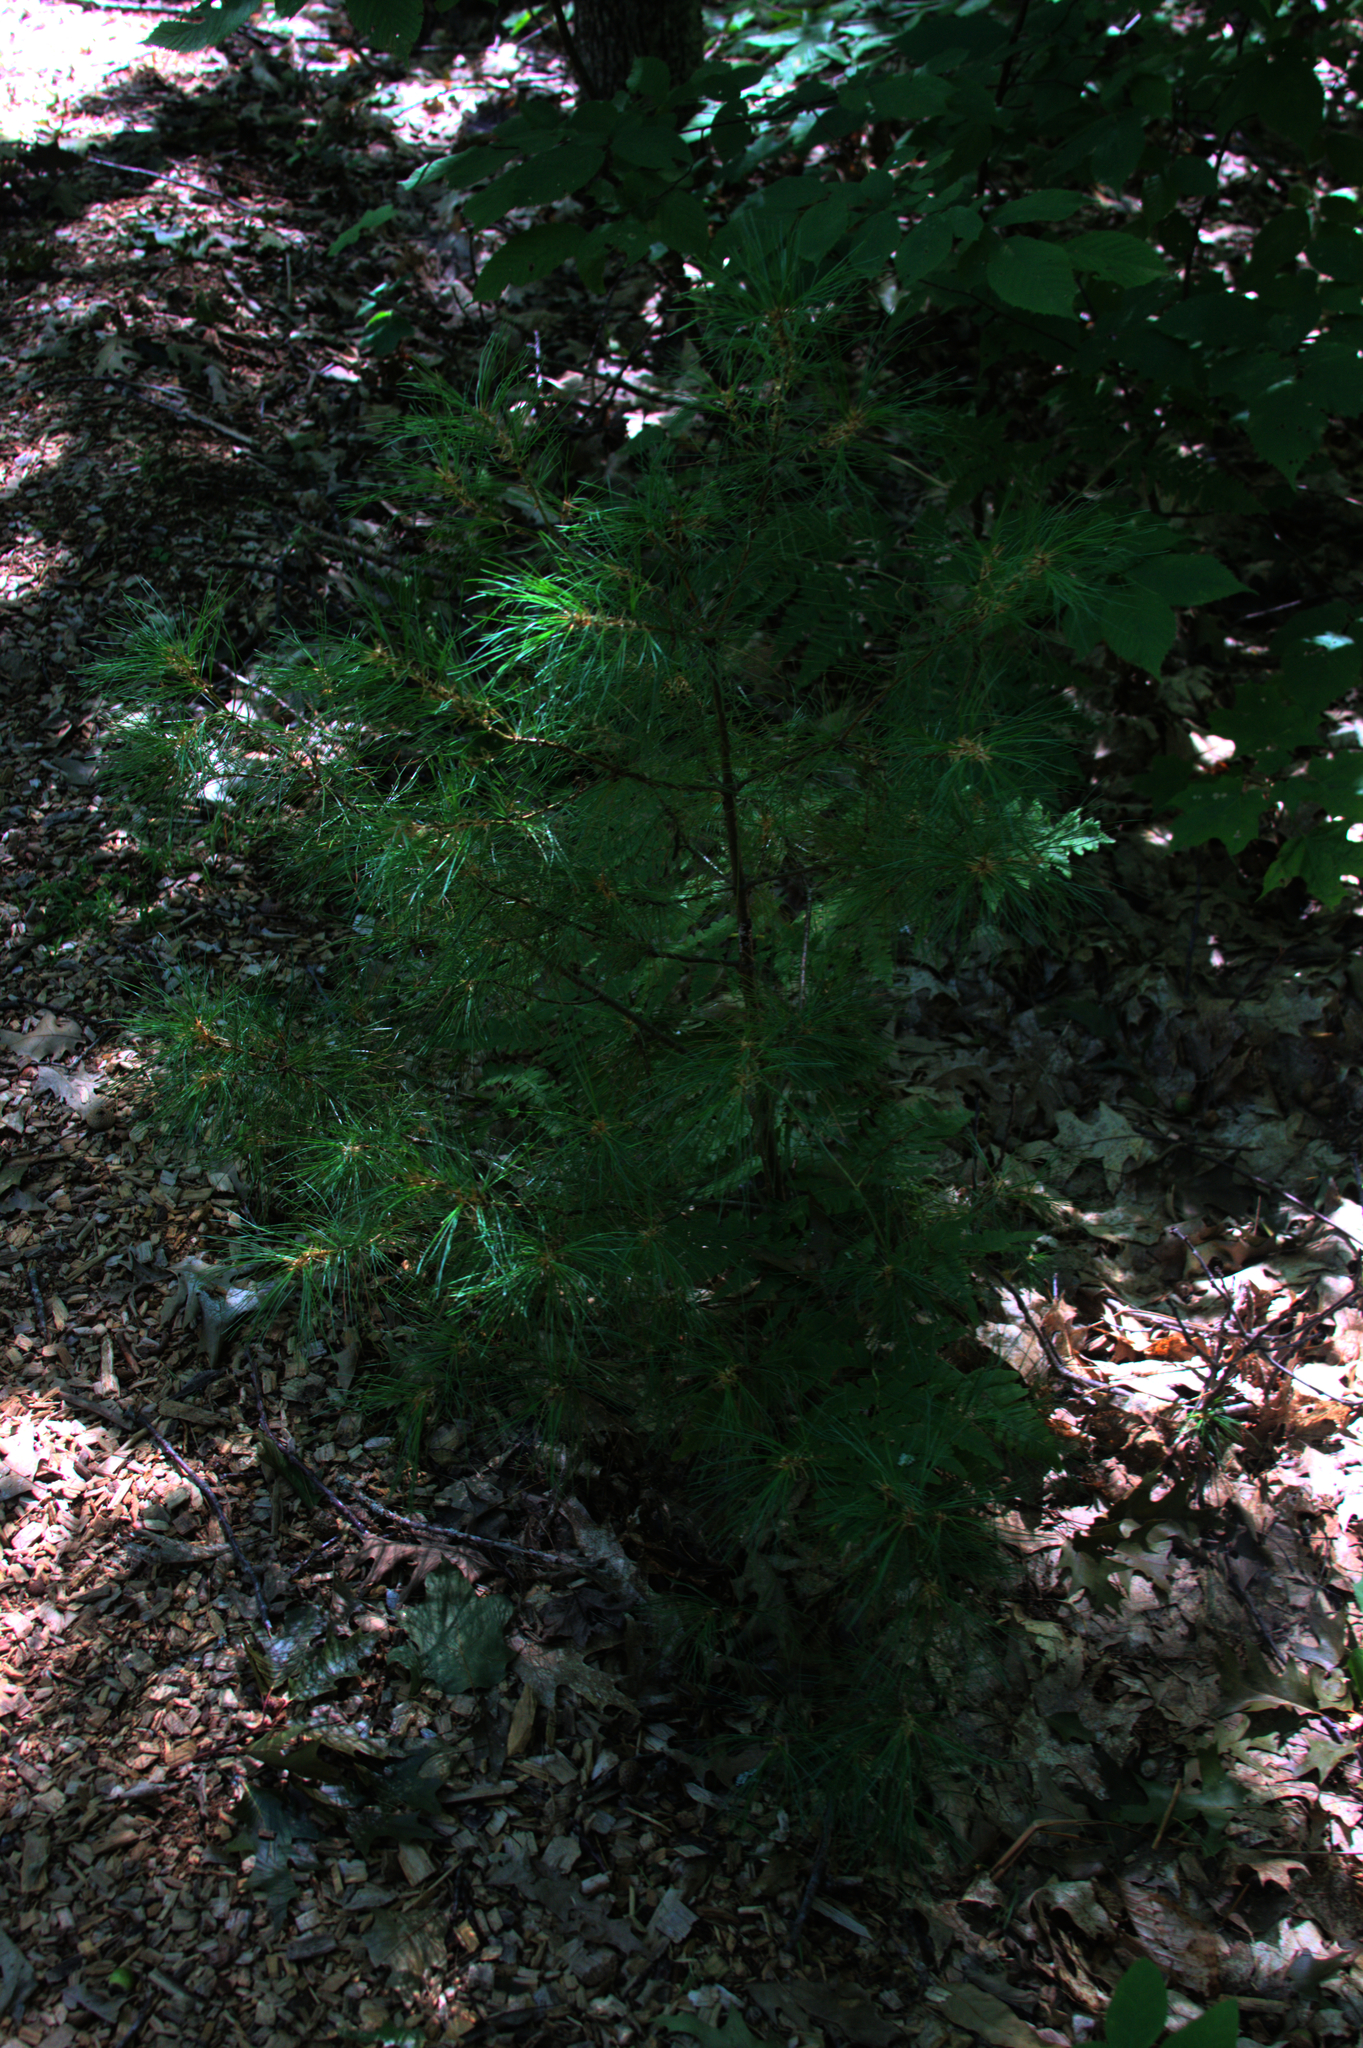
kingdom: Plantae
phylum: Tracheophyta
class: Pinopsida
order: Pinales
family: Pinaceae
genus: Pinus
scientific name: Pinus strobus
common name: Weymouth pine
